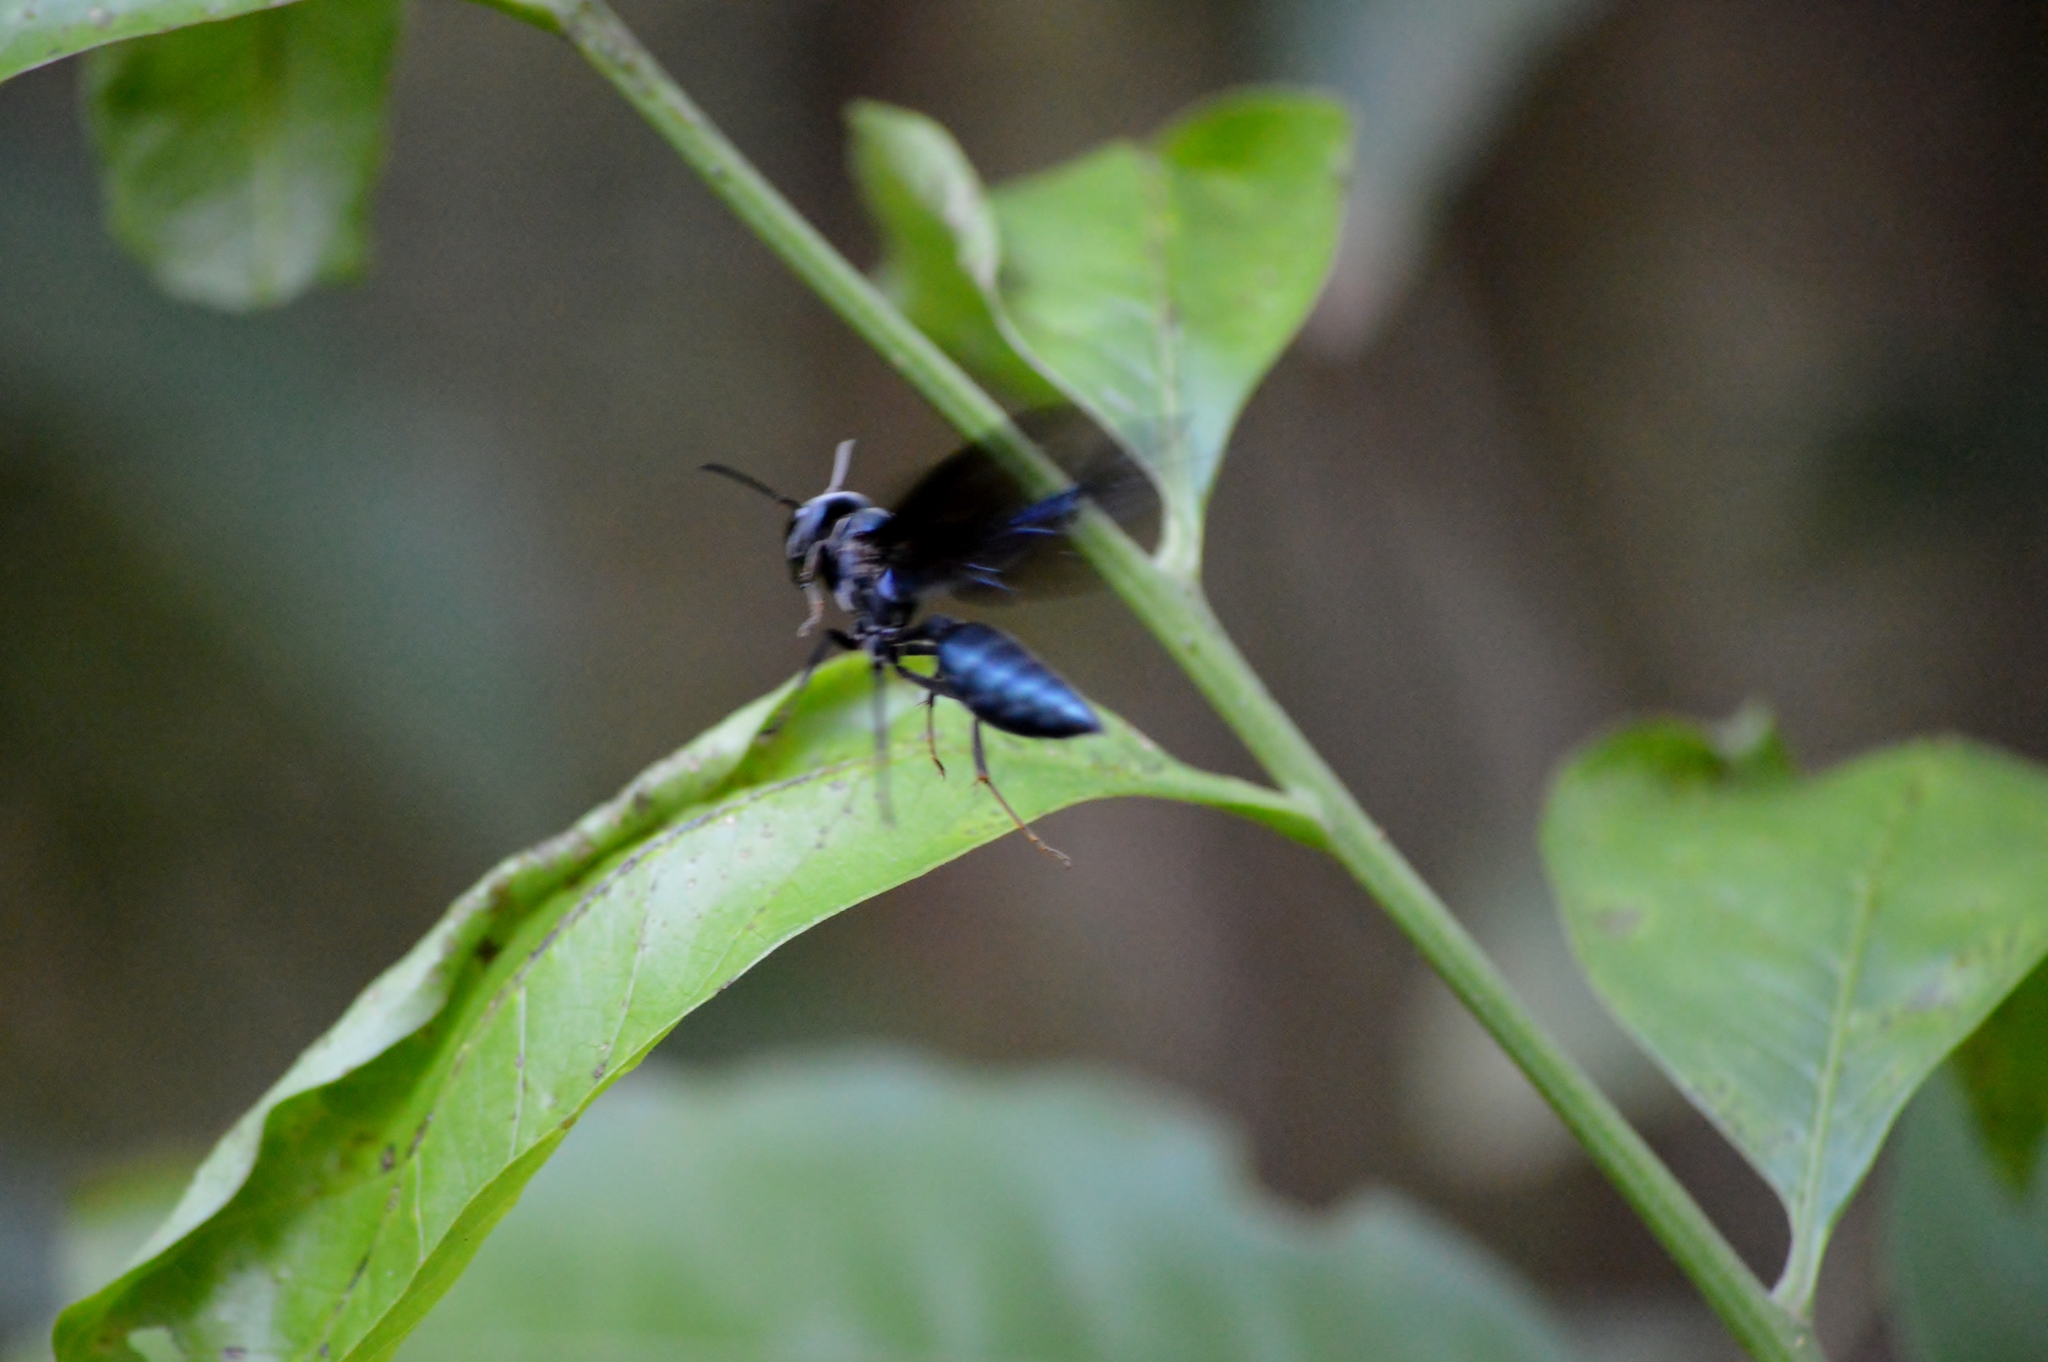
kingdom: Animalia
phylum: Arthropoda
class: Insecta
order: Hymenoptera
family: Vespidae
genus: Synoeca
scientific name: Synoeca surinama
